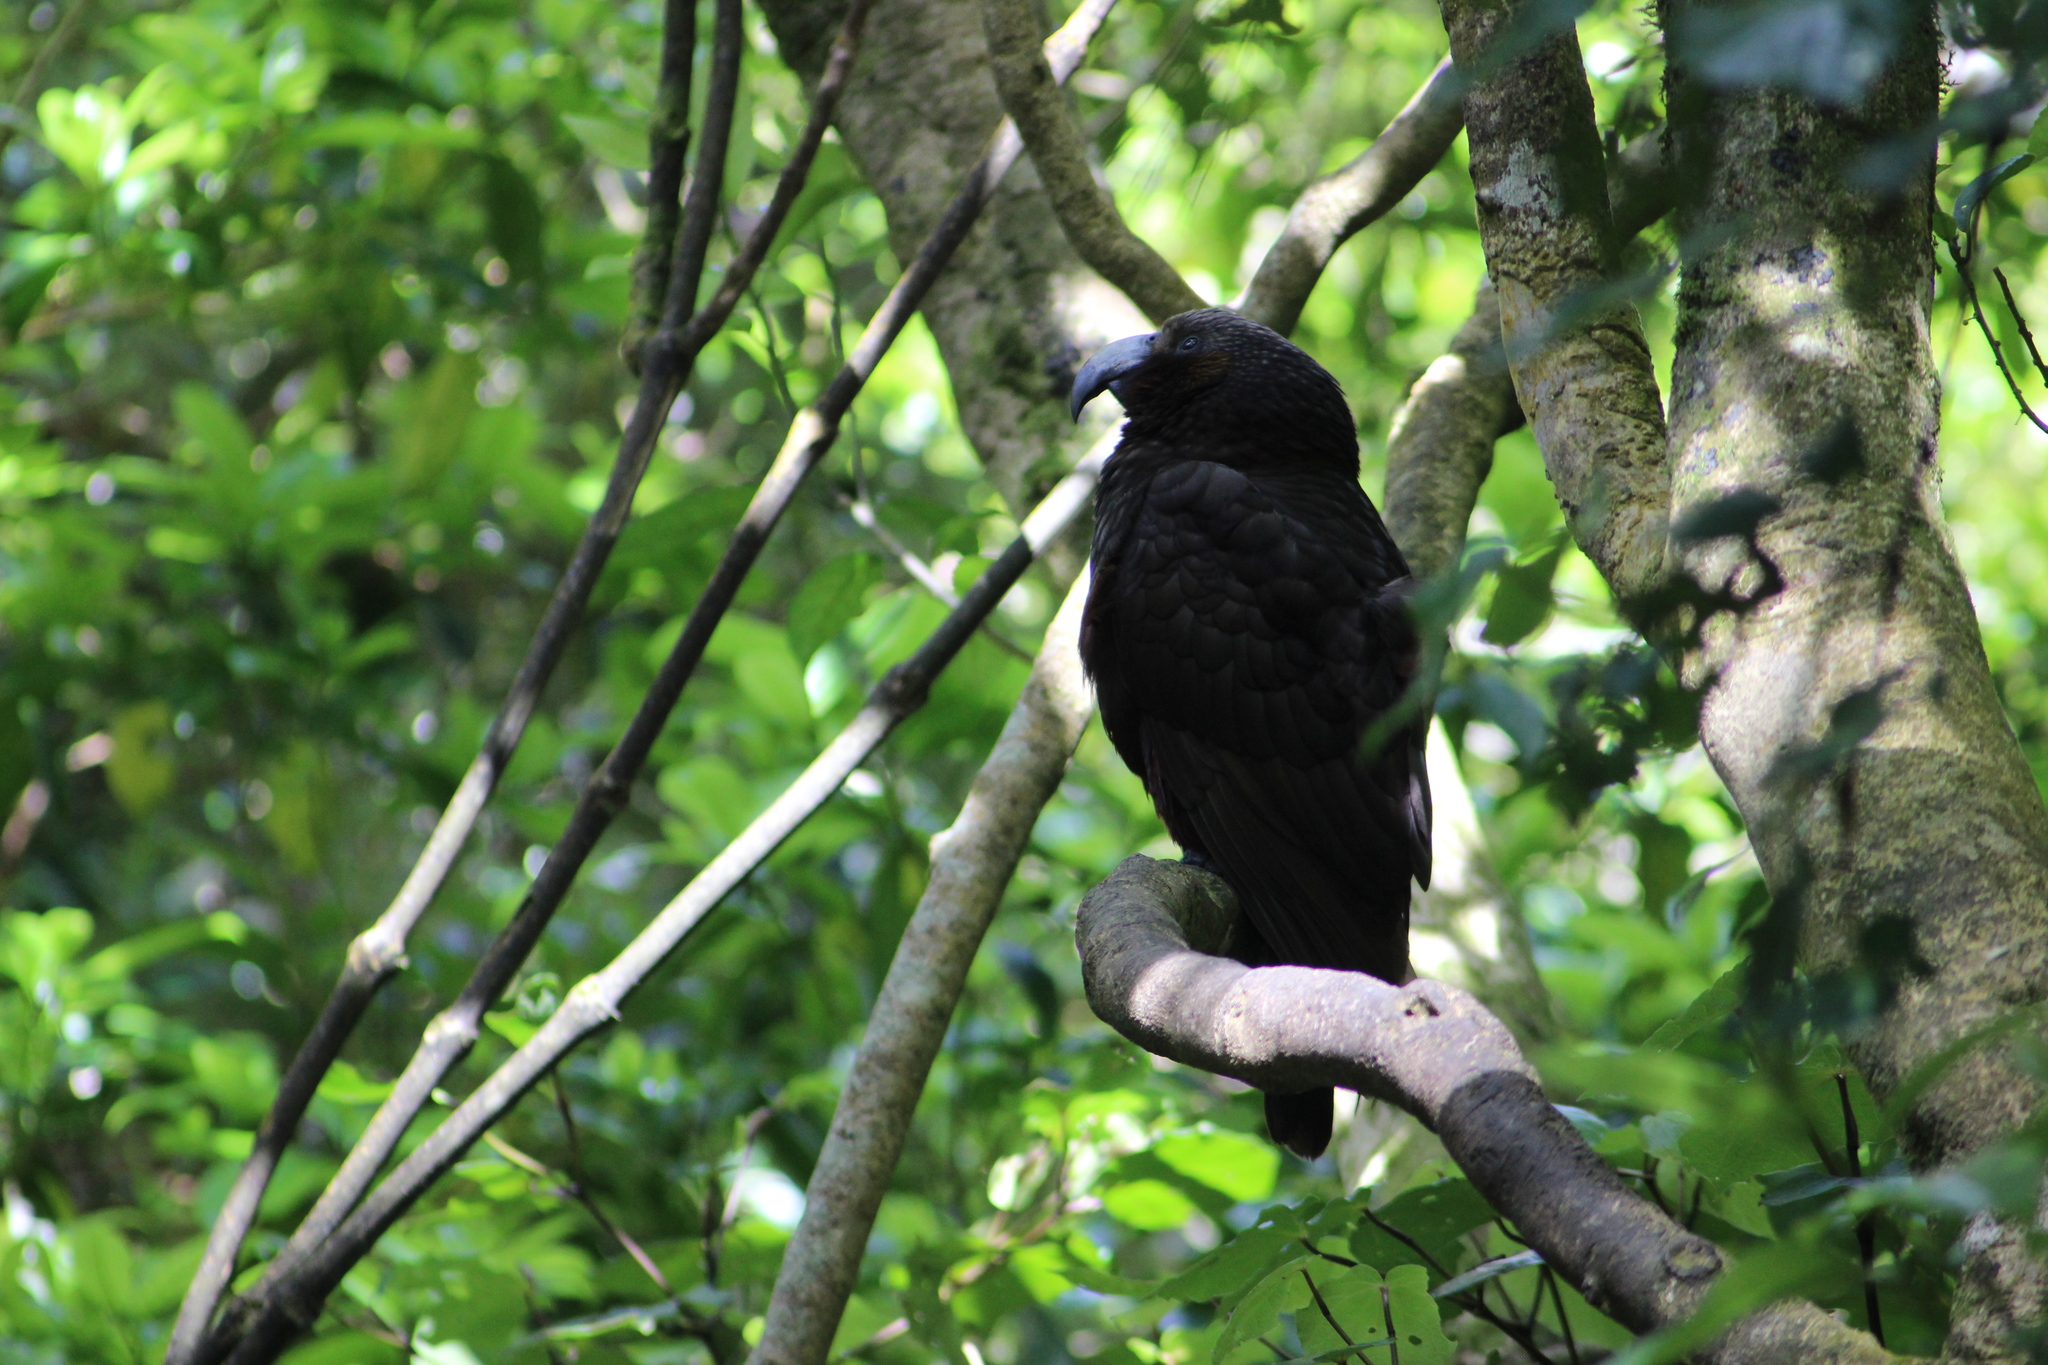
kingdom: Animalia
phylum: Chordata
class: Aves
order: Psittaciformes
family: Psittacidae
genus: Nestor
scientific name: Nestor meridionalis
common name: New zealand kaka
